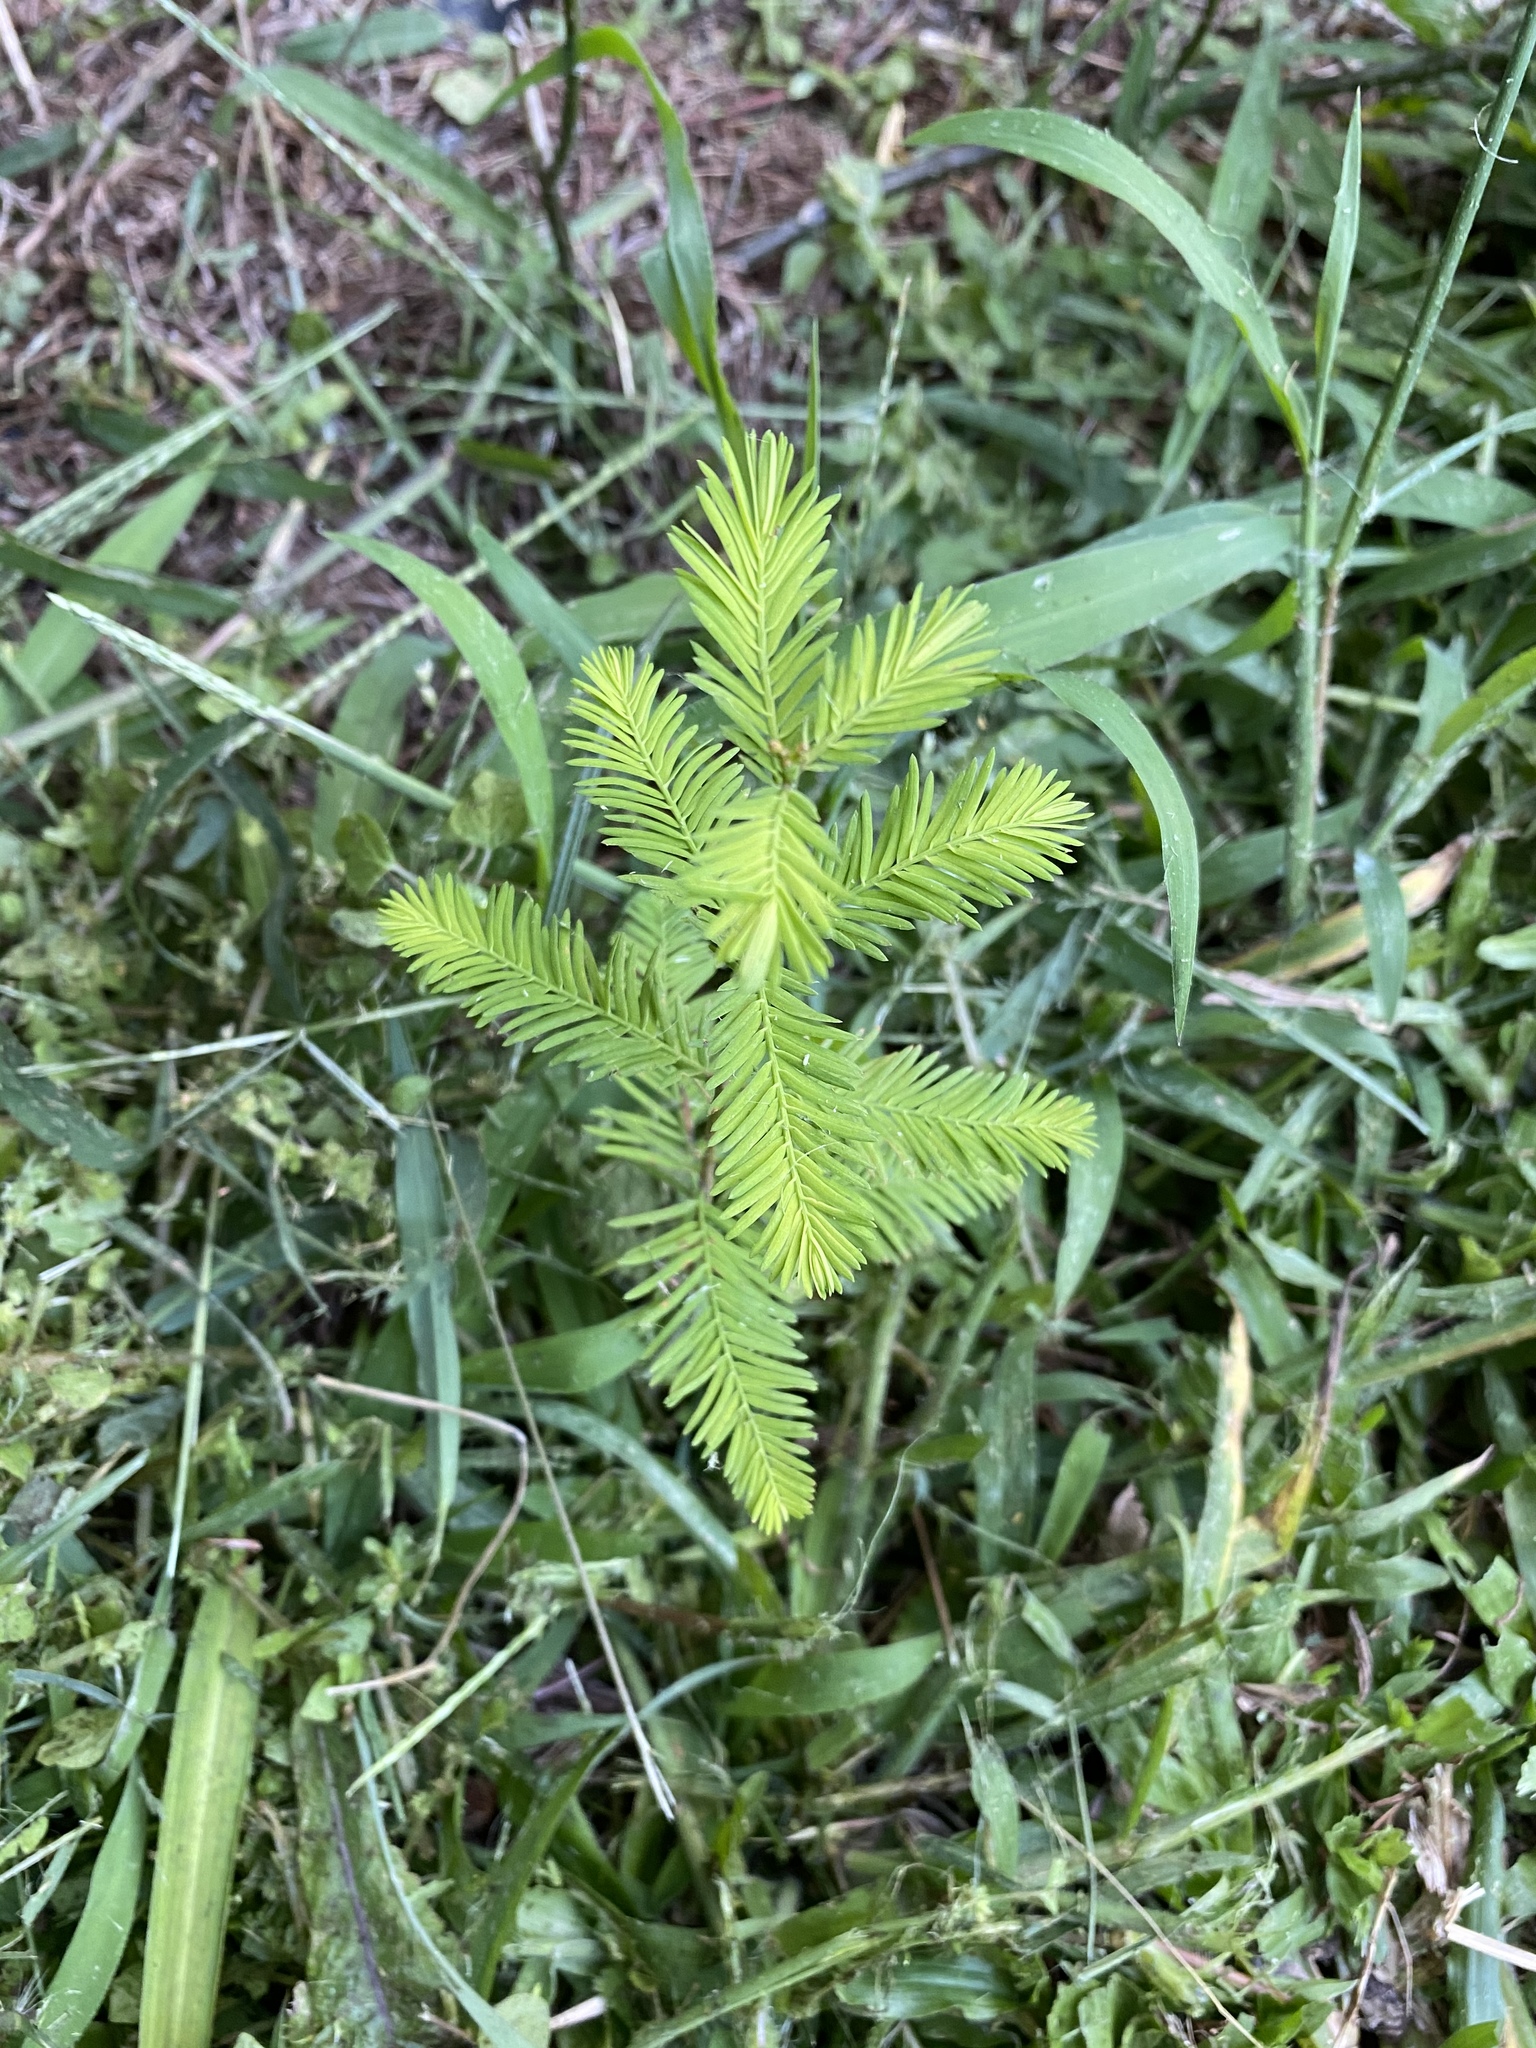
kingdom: Plantae
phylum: Tracheophyta
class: Pinopsida
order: Pinales
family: Cupressaceae
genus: Taxodium
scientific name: Taxodium distichum
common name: Bald cypress
